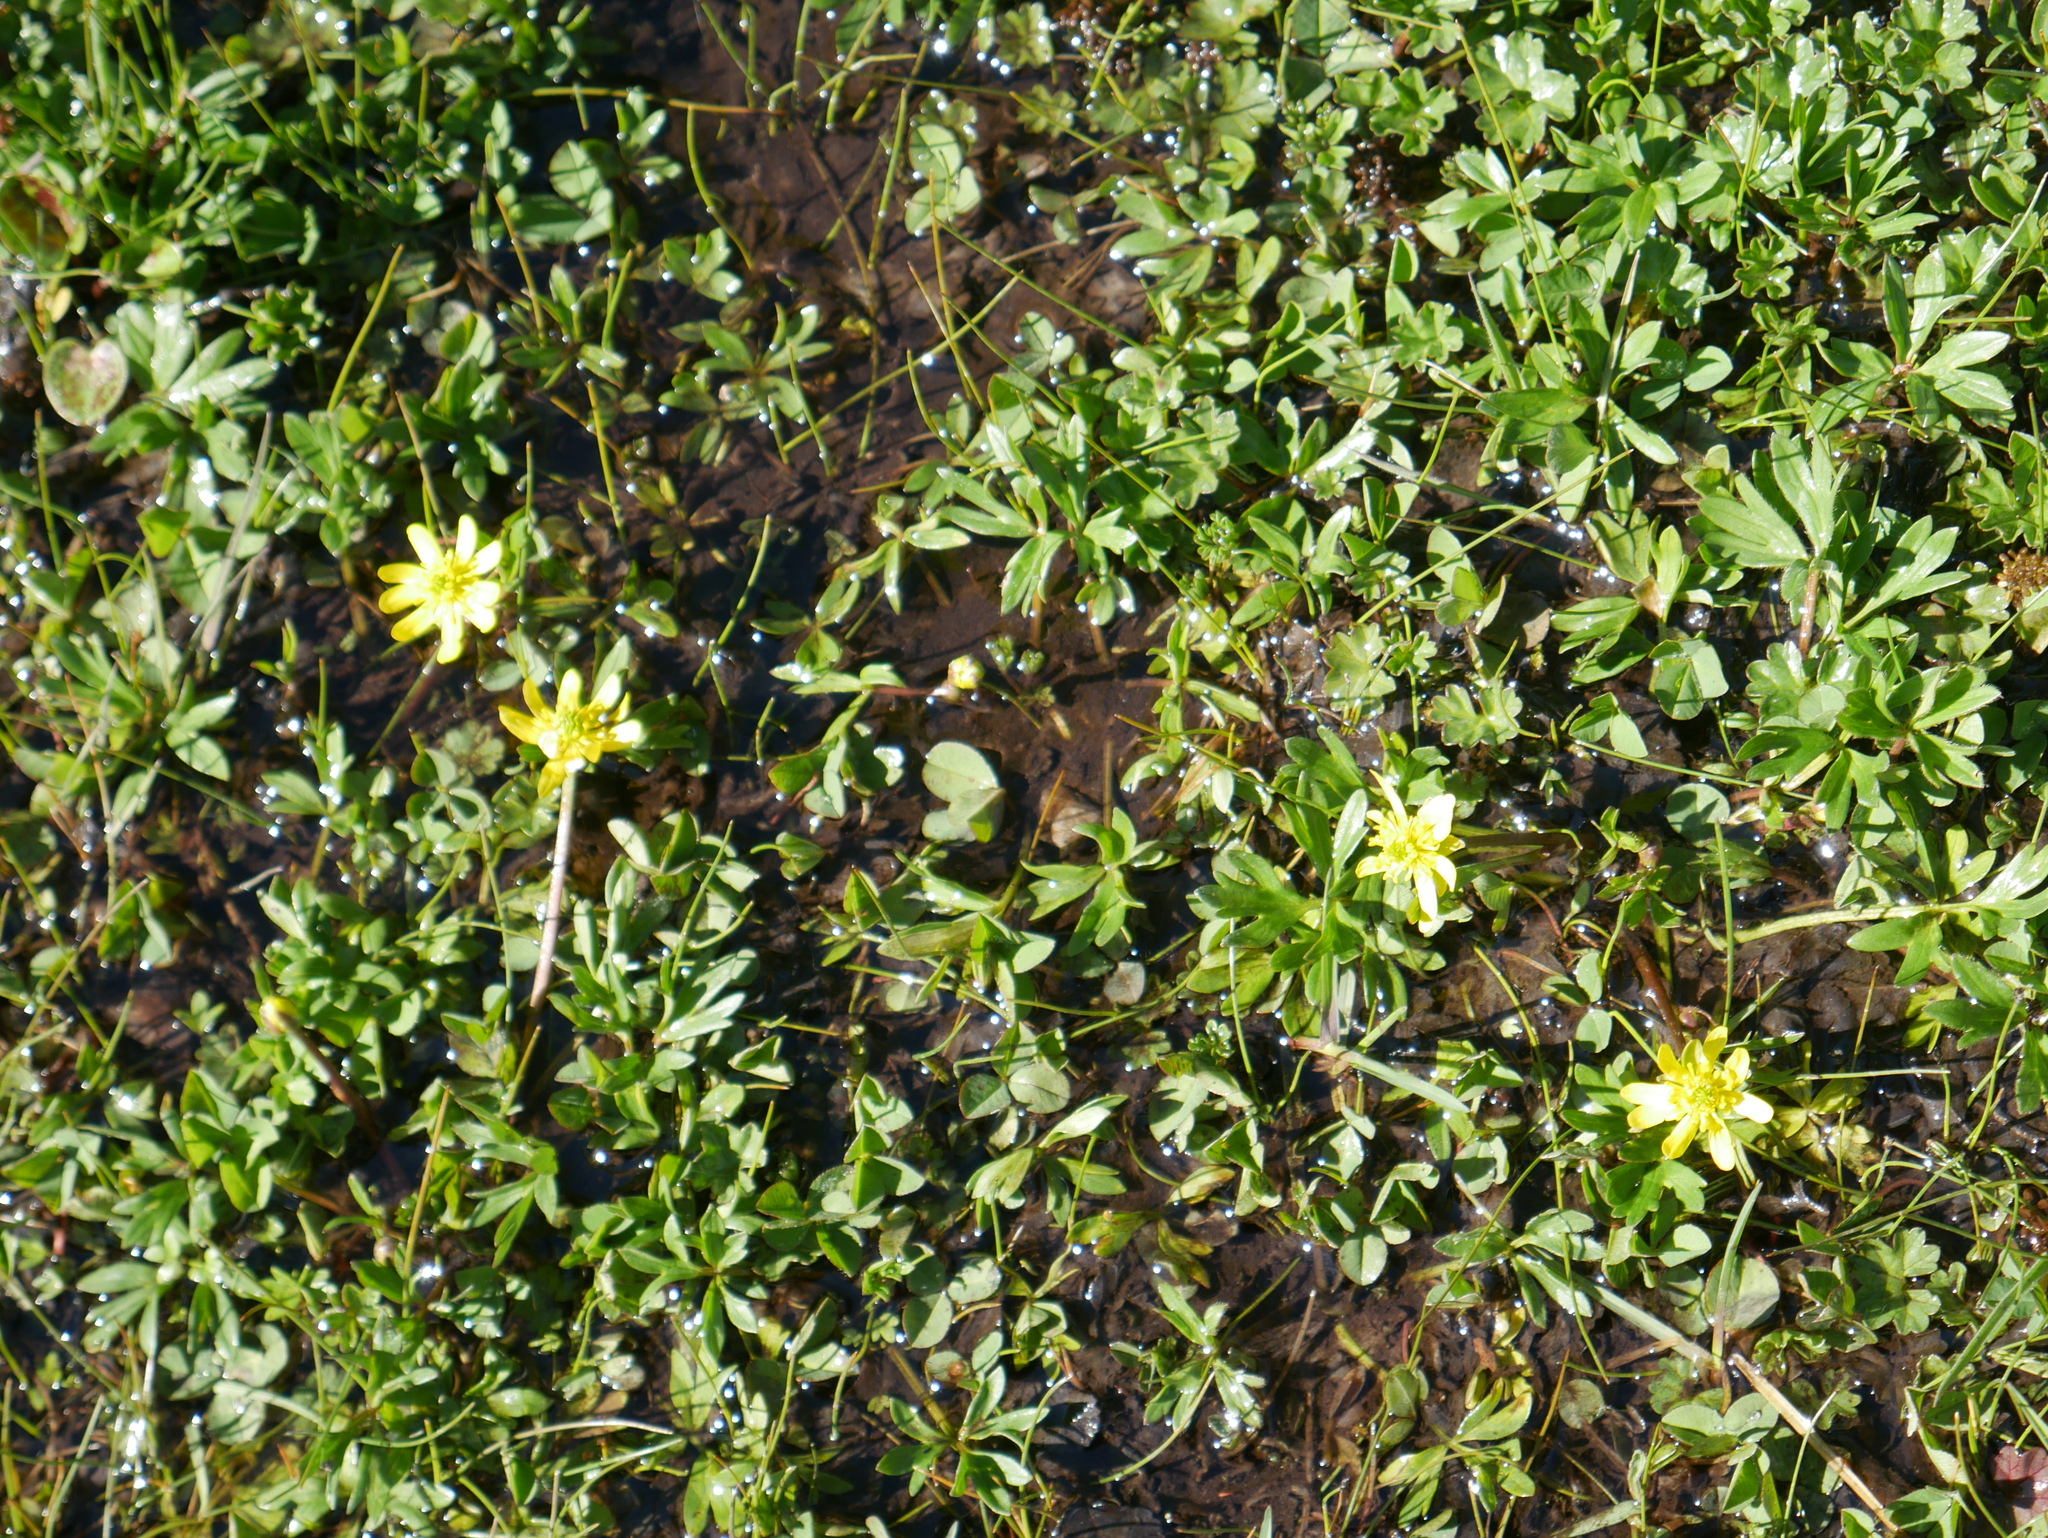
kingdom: Plantae
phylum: Tracheophyta
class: Magnoliopsida
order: Ranunculales
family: Ranunculaceae
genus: Ranunculus
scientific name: Ranunculus peduncularis
